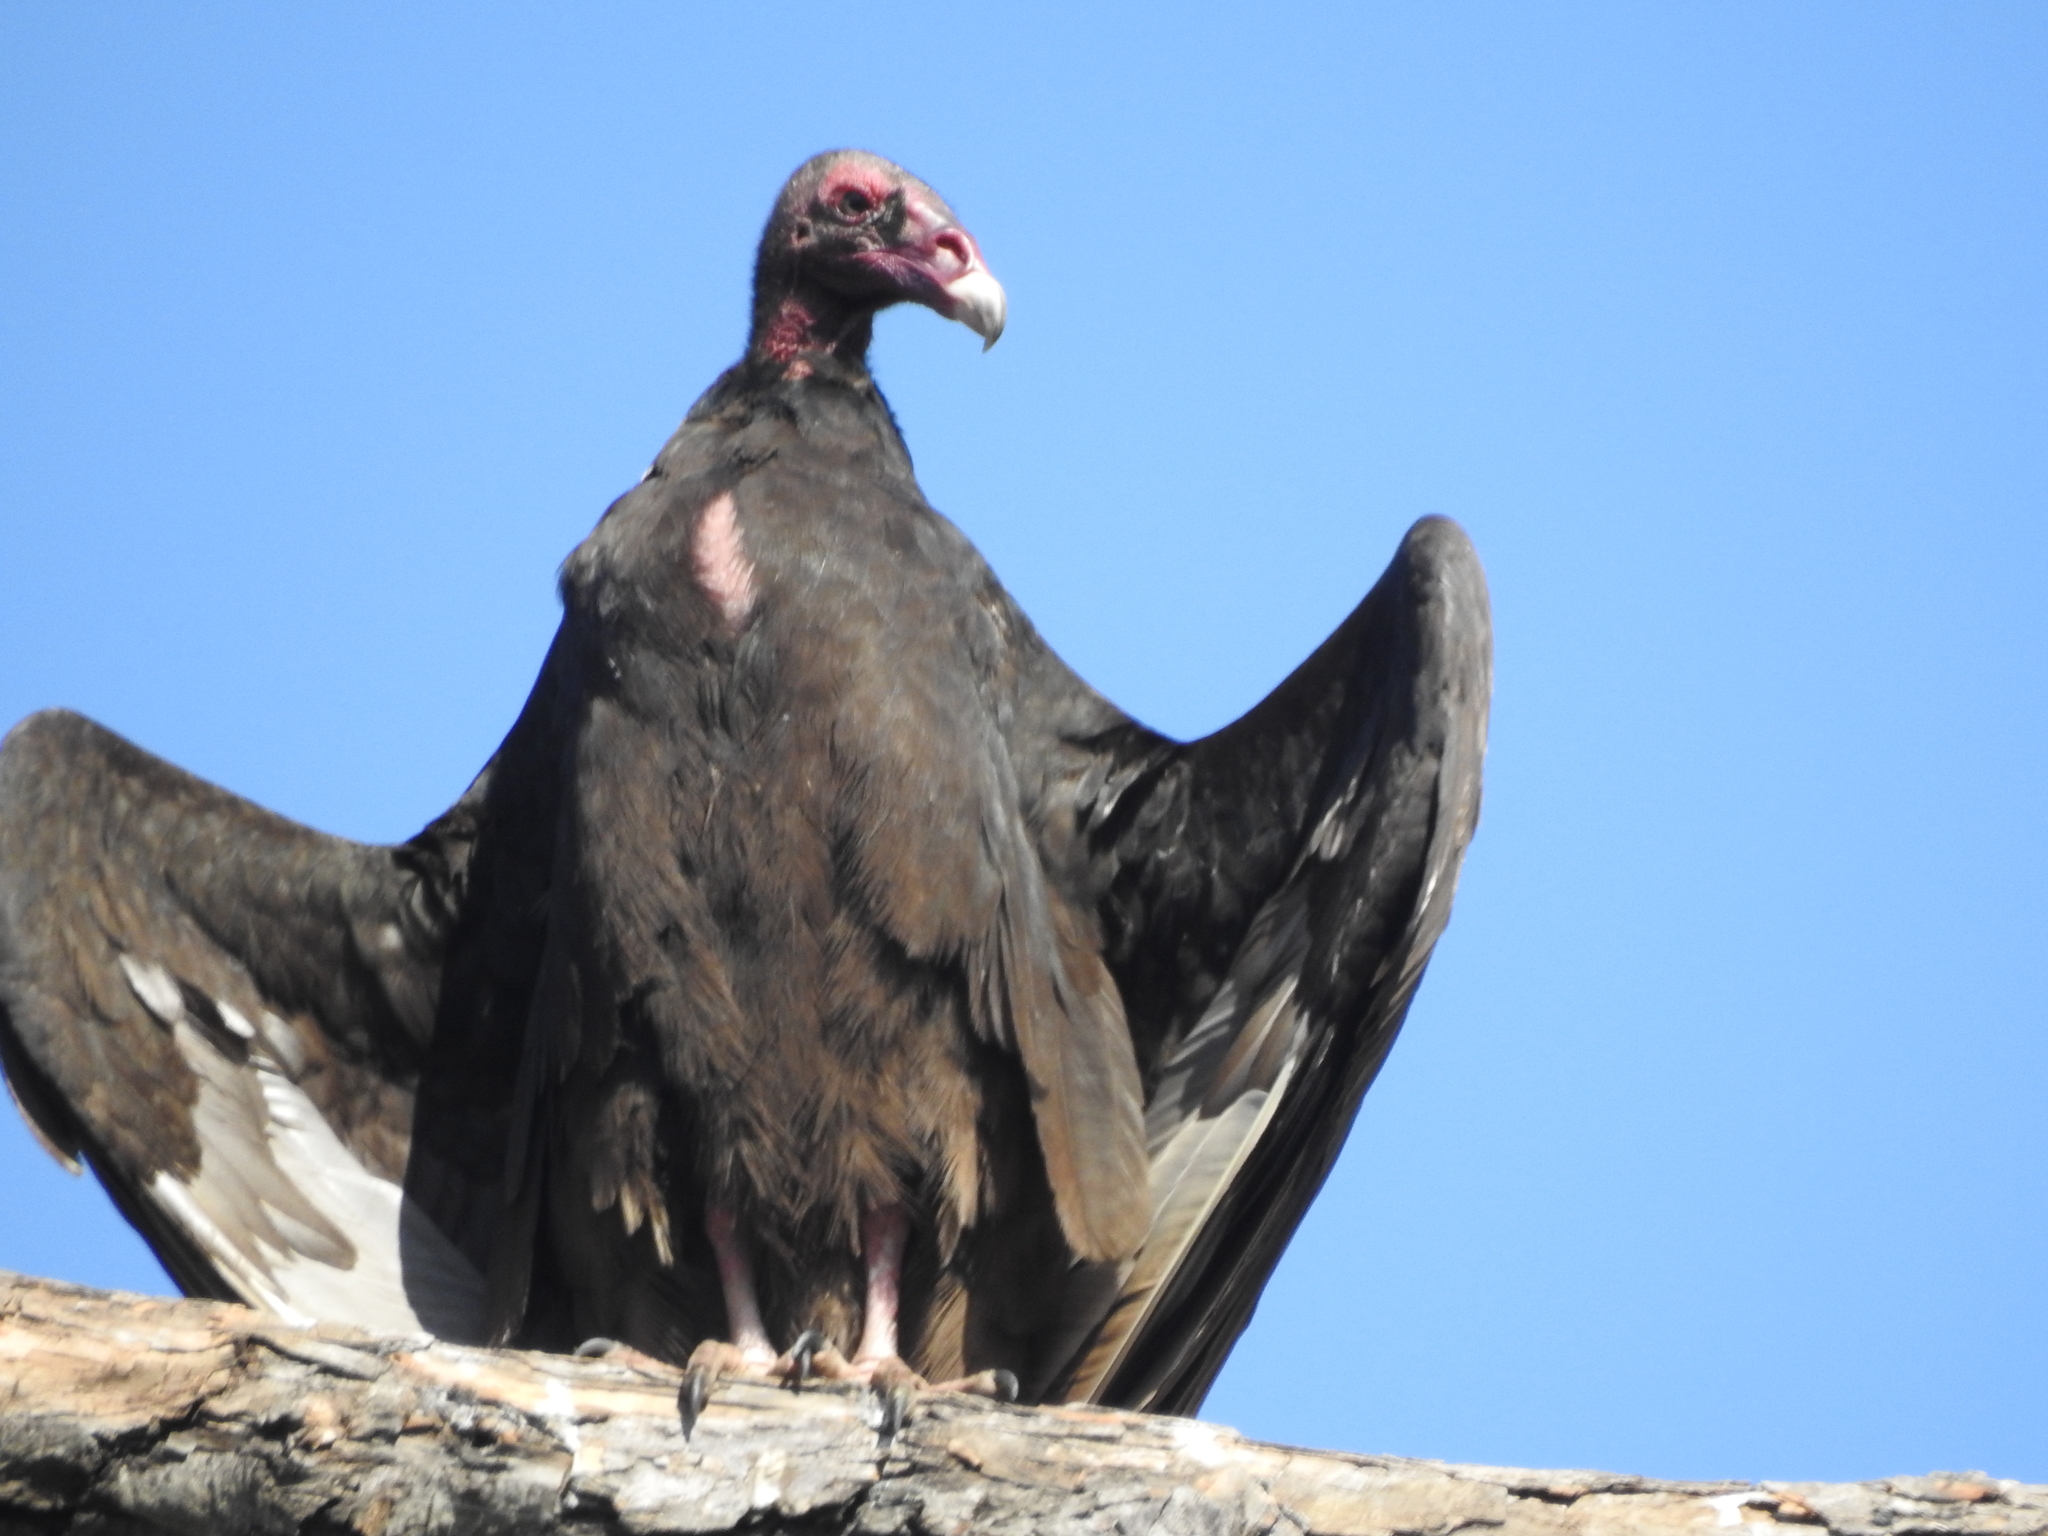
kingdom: Animalia
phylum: Chordata
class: Aves
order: Accipitriformes
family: Cathartidae
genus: Cathartes
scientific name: Cathartes aura
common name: Turkey vulture
